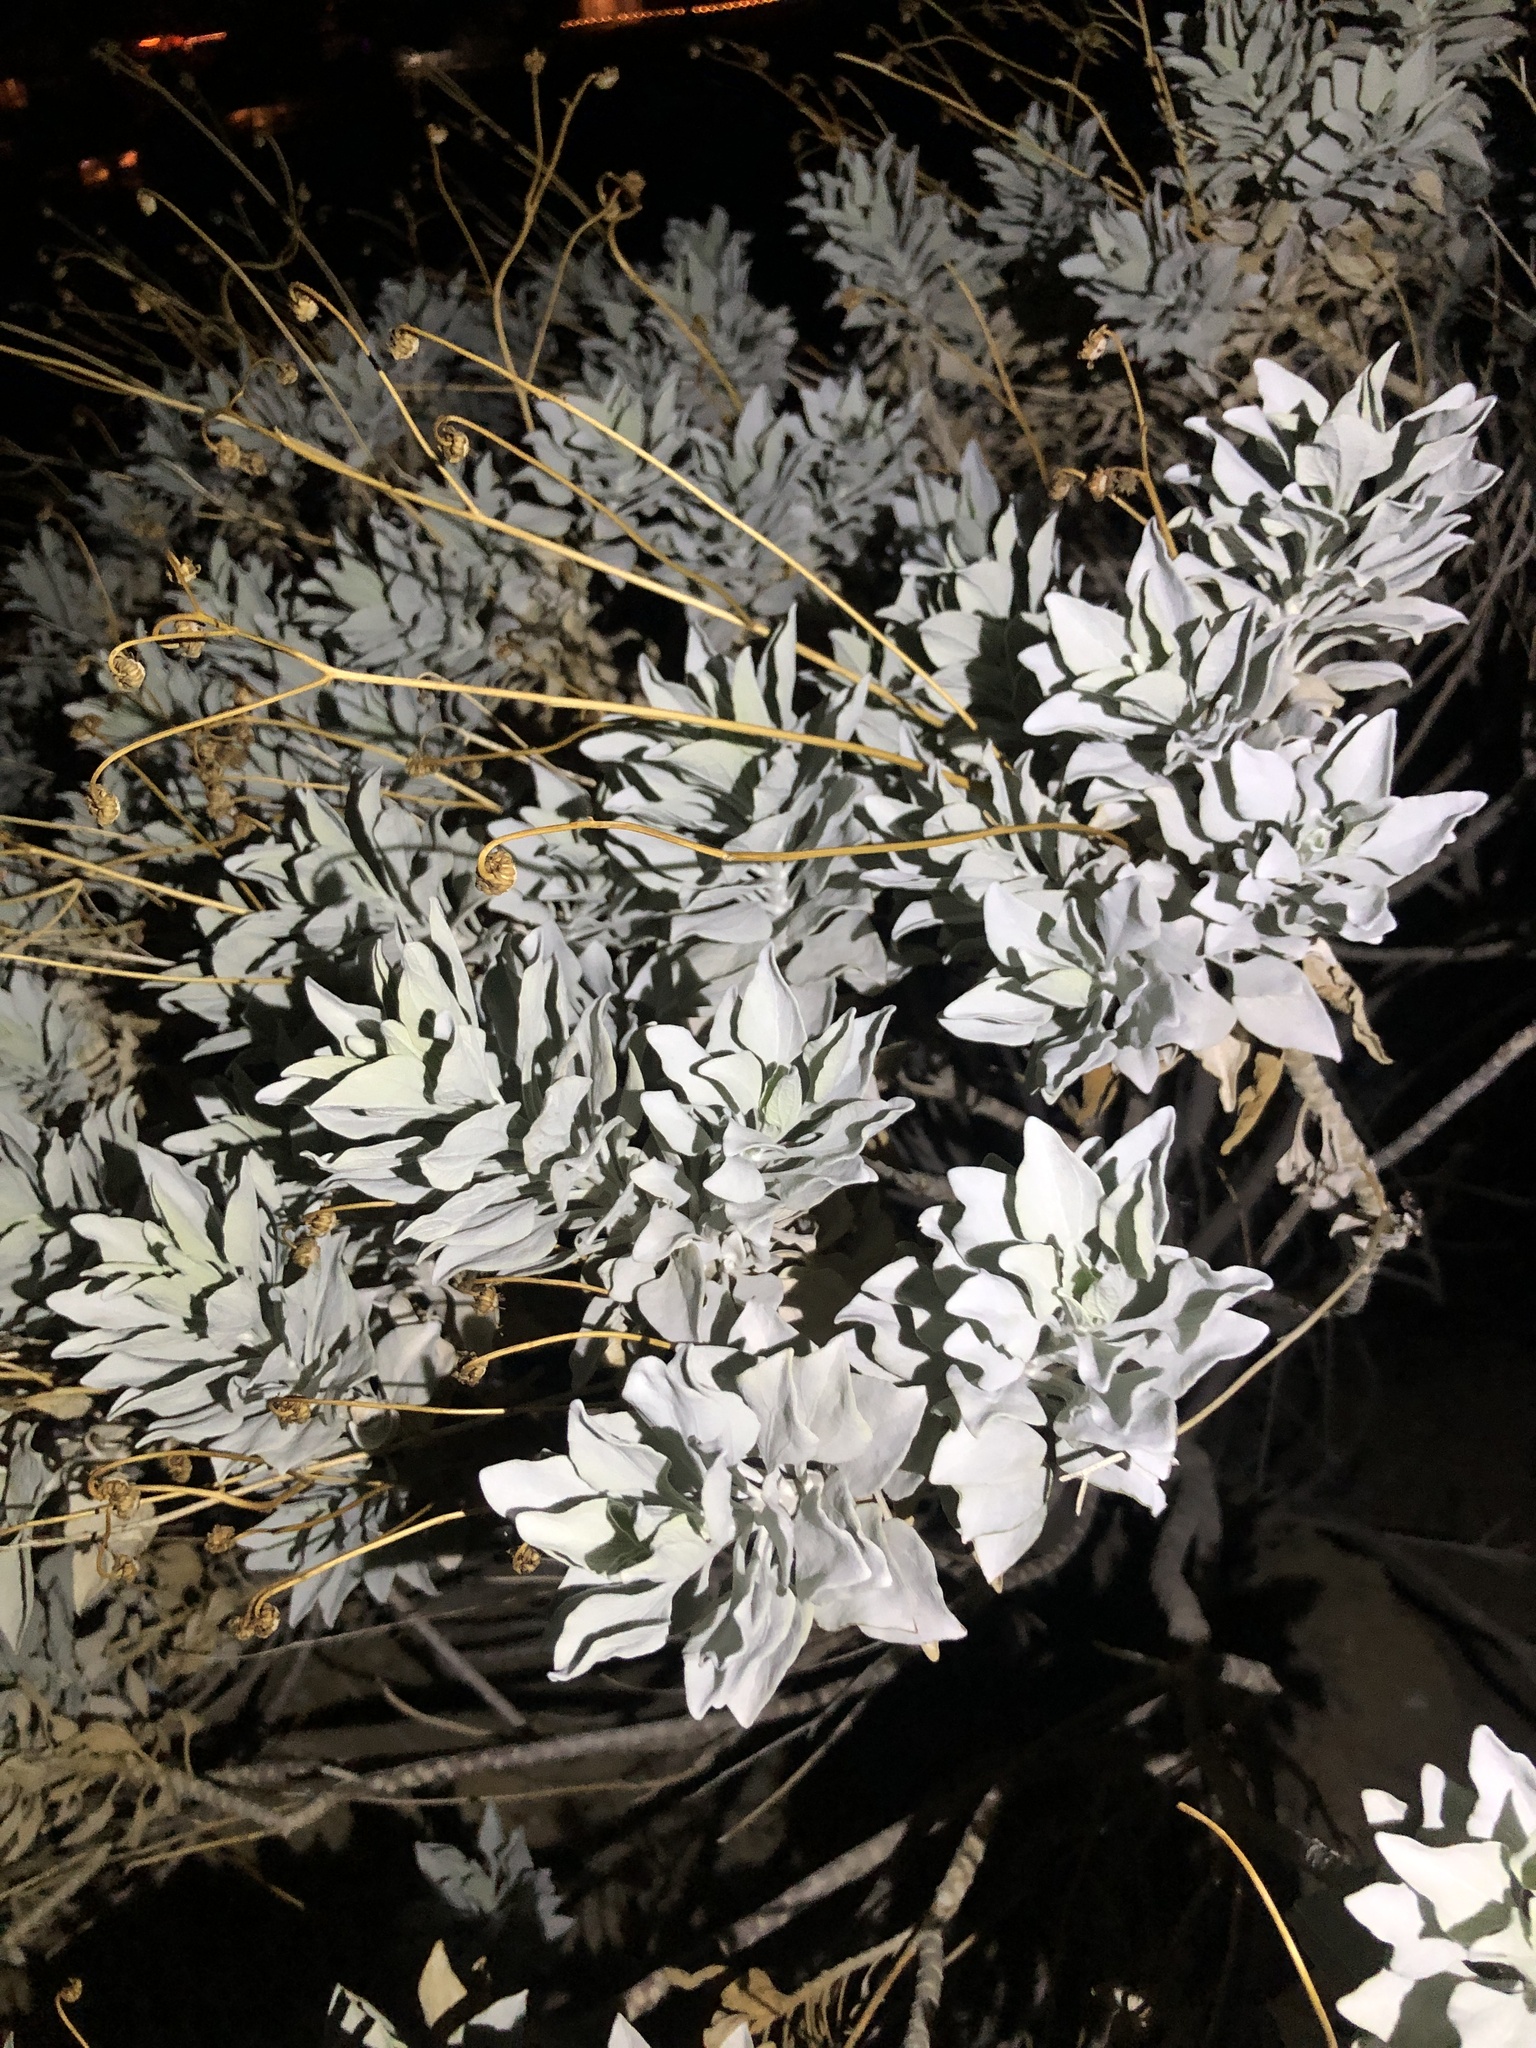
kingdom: Plantae
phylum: Tracheophyta
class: Magnoliopsida
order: Asterales
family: Asteraceae
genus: Encelia
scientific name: Encelia farinosa
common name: Brittlebush
